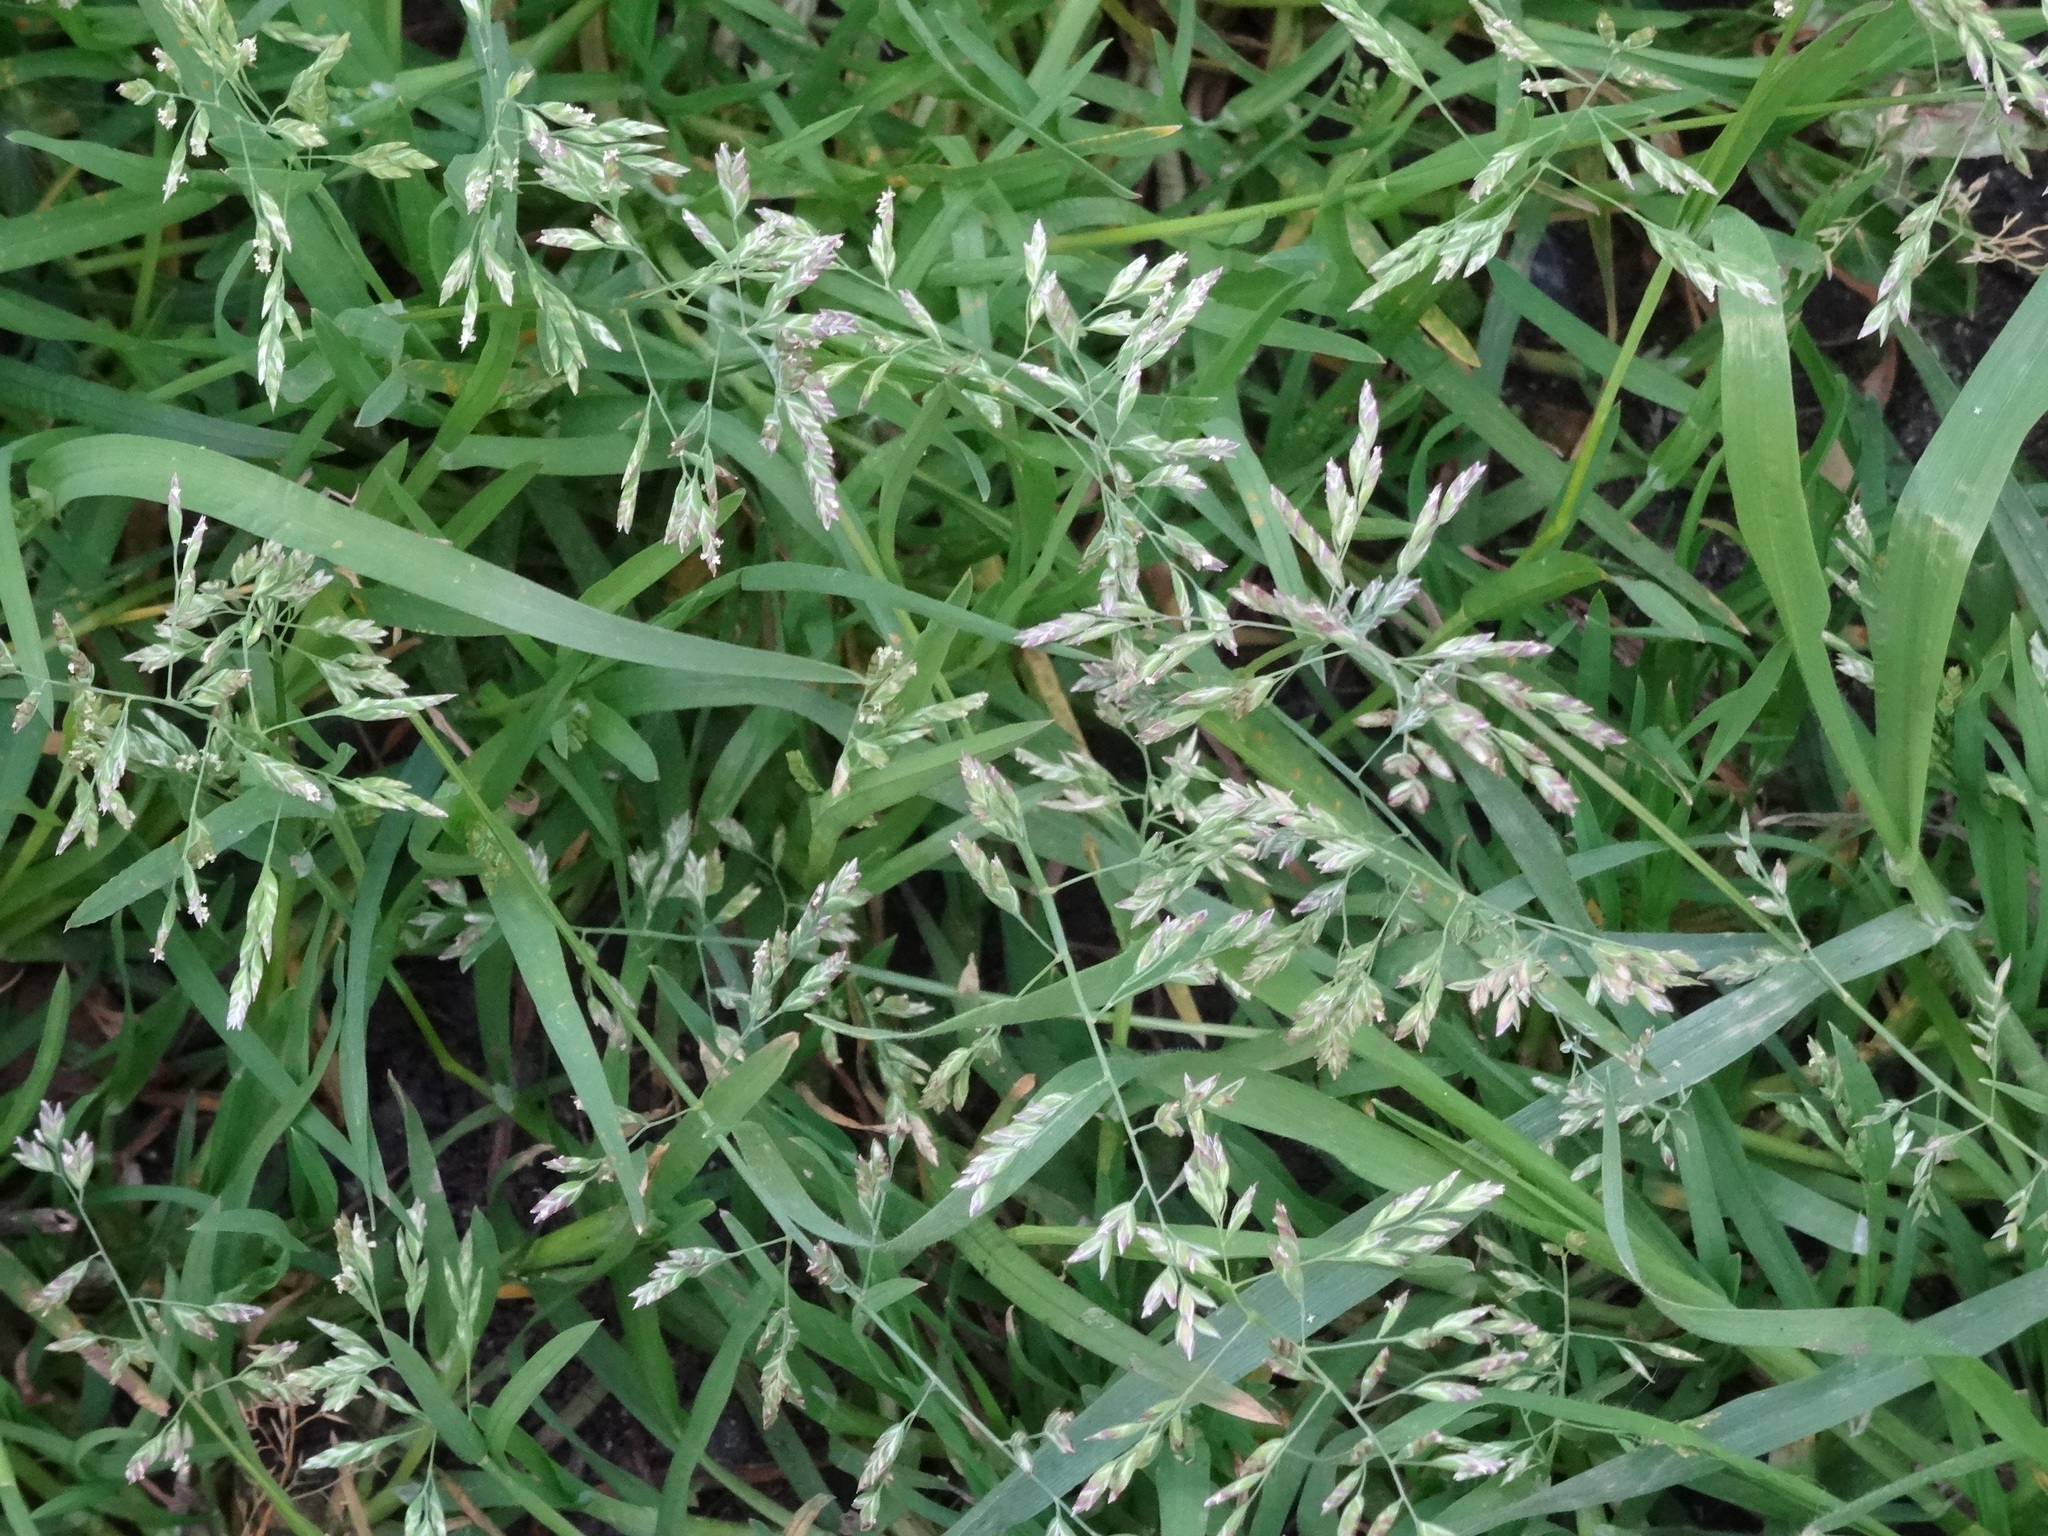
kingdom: Plantae
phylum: Tracheophyta
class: Liliopsida
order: Poales
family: Poaceae
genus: Poa
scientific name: Poa annua
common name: Annual bluegrass
